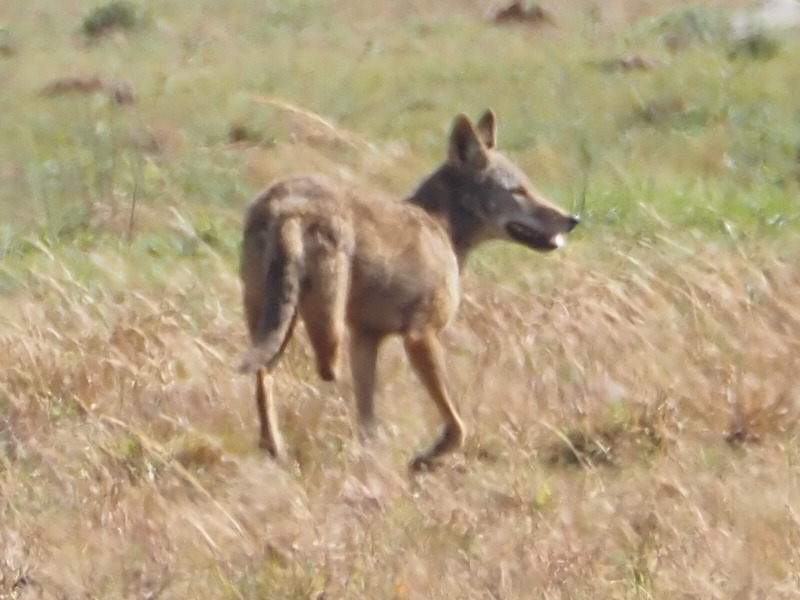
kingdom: Animalia
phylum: Chordata
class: Mammalia
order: Carnivora
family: Canidae
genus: Canis
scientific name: Canis latrans
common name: Coyote
